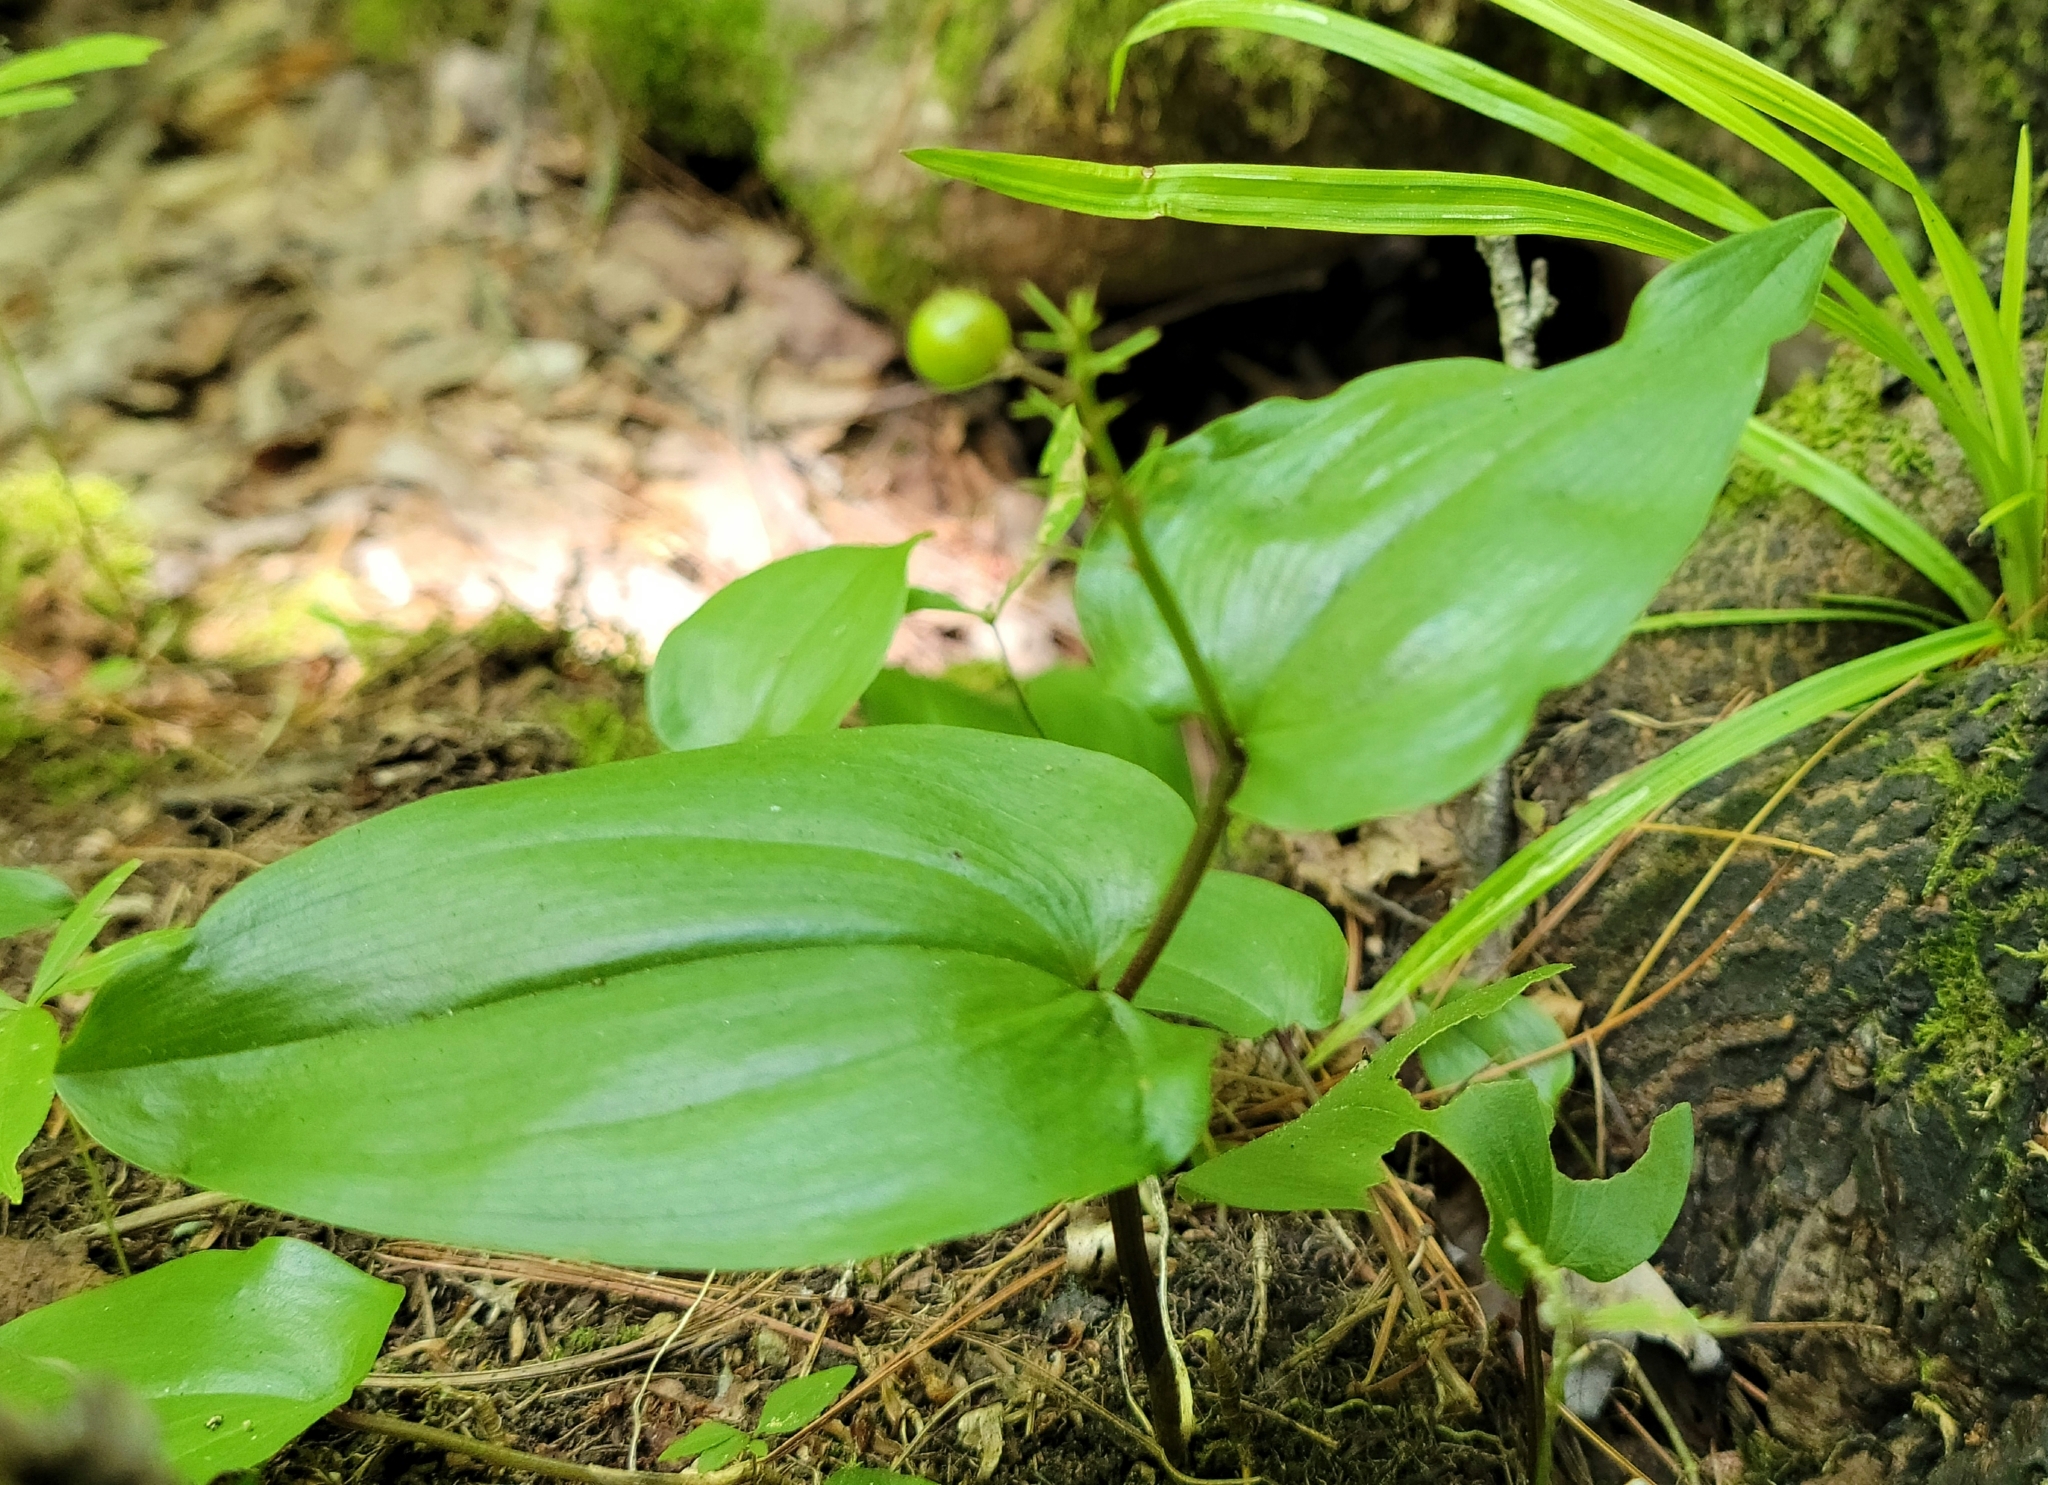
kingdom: Plantae
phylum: Tracheophyta
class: Liliopsida
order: Asparagales
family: Asparagaceae
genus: Maianthemum
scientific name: Maianthemum canadense
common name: False lily-of-the-valley
